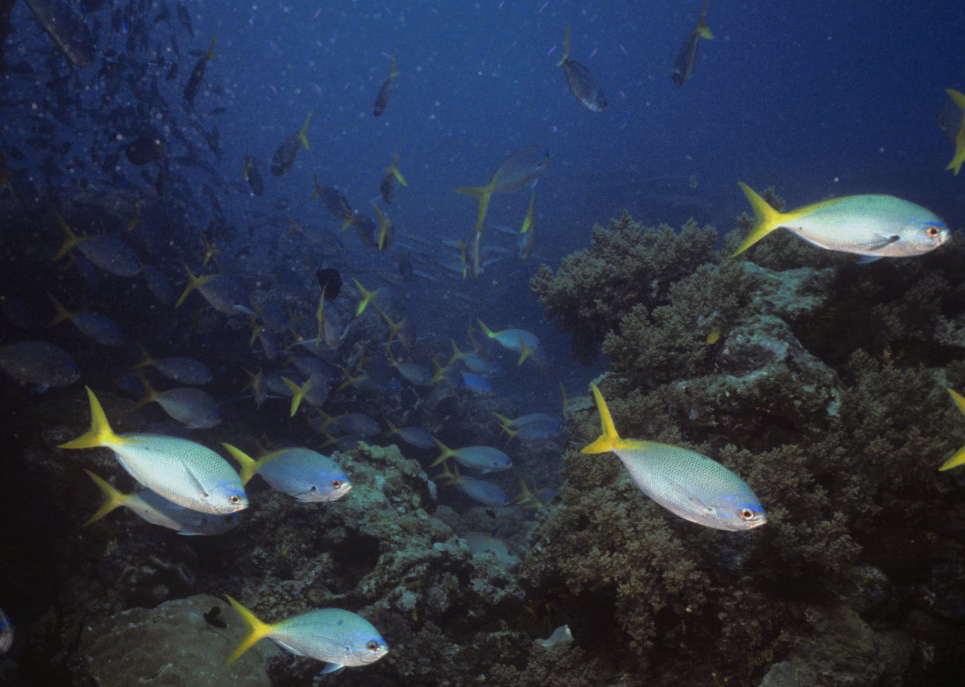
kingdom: Animalia
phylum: Chordata
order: Perciformes
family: Caesionidae
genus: Caesio
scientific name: Caesio cuning
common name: Red-bellied fusilier
